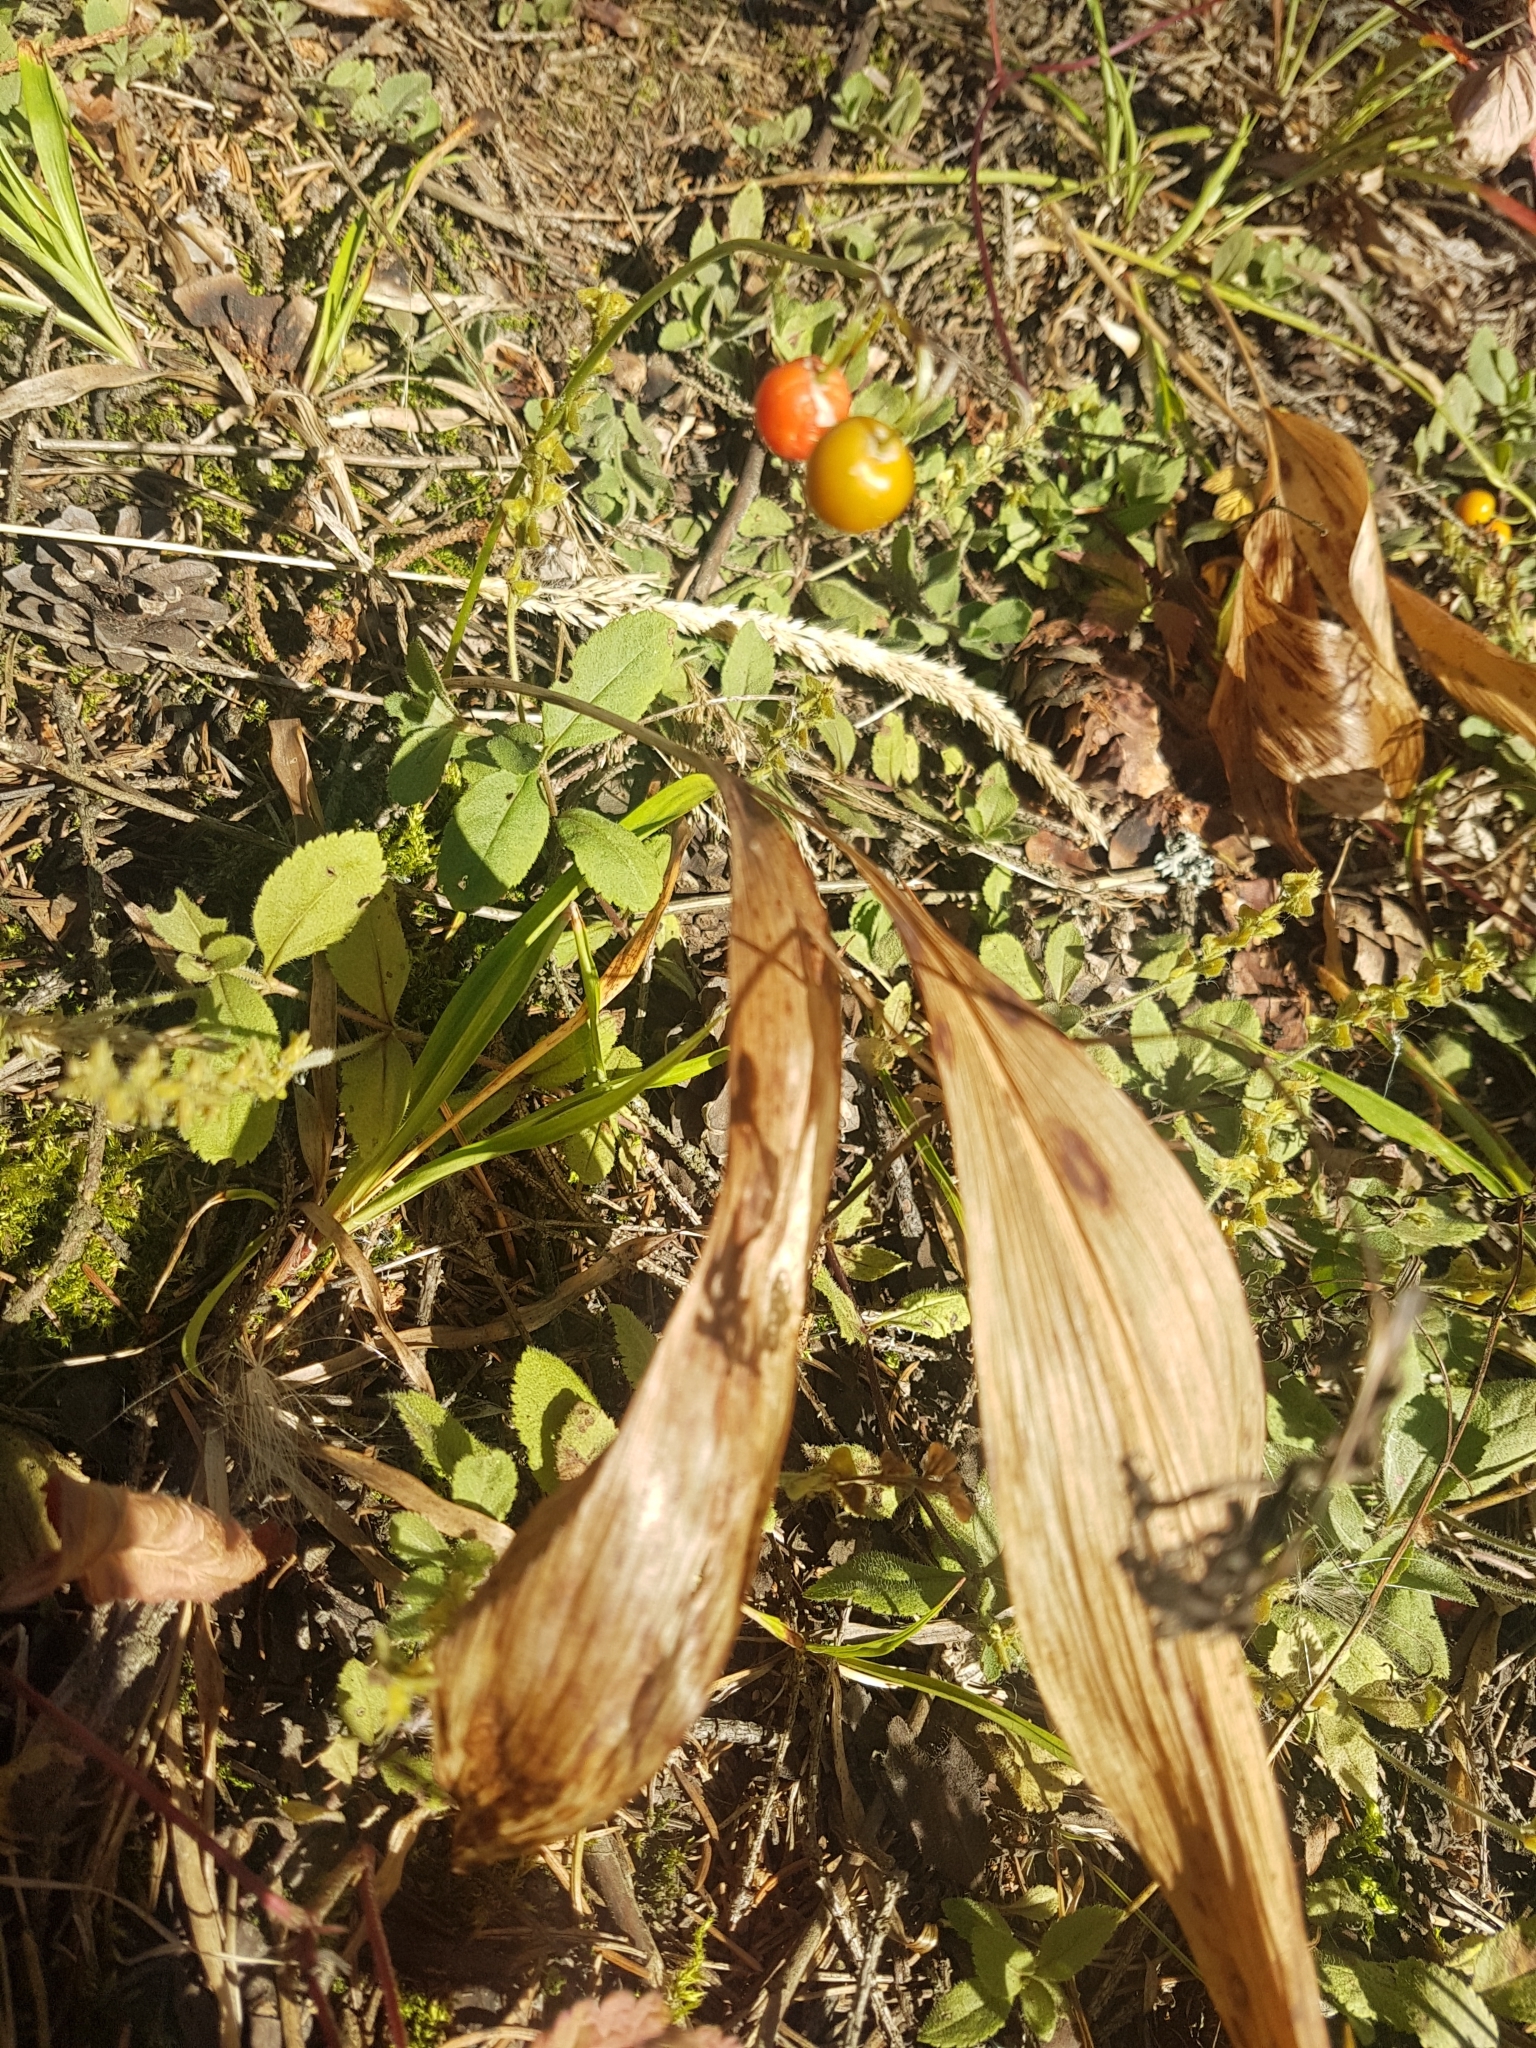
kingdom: Plantae
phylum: Tracheophyta
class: Liliopsida
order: Asparagales
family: Asparagaceae
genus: Convallaria
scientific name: Convallaria majalis
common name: Lily-of-the-valley
